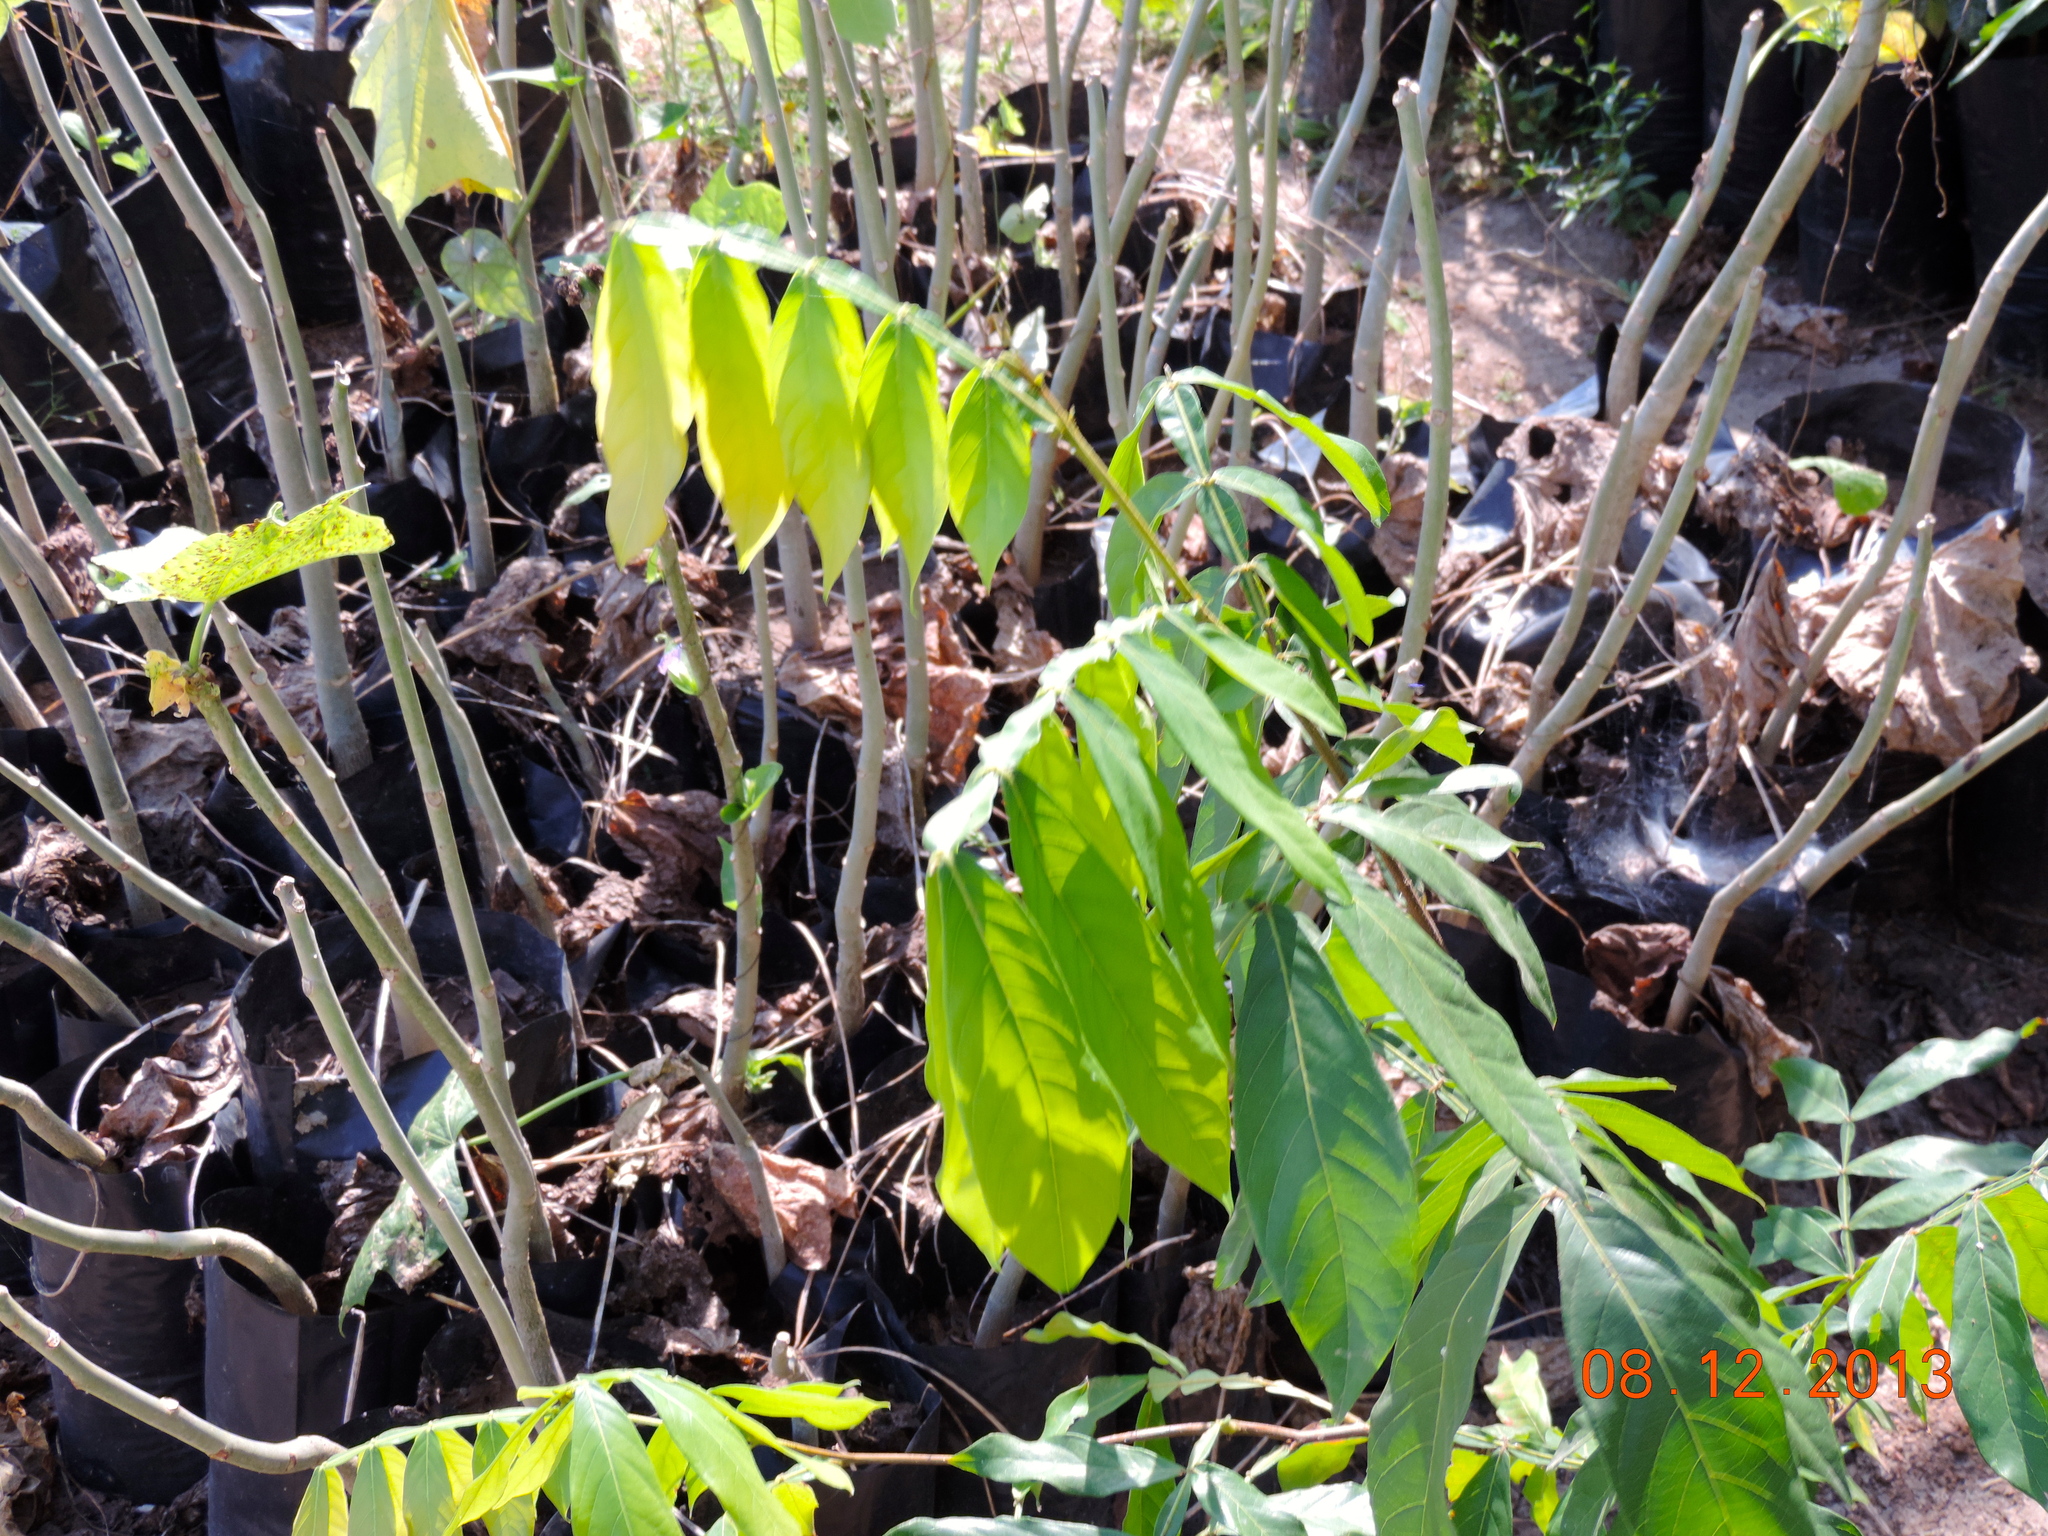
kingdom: Plantae
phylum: Tracheophyta
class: Magnoliopsida
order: Fabales
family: Fabaceae
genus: Inga
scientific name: Inga
